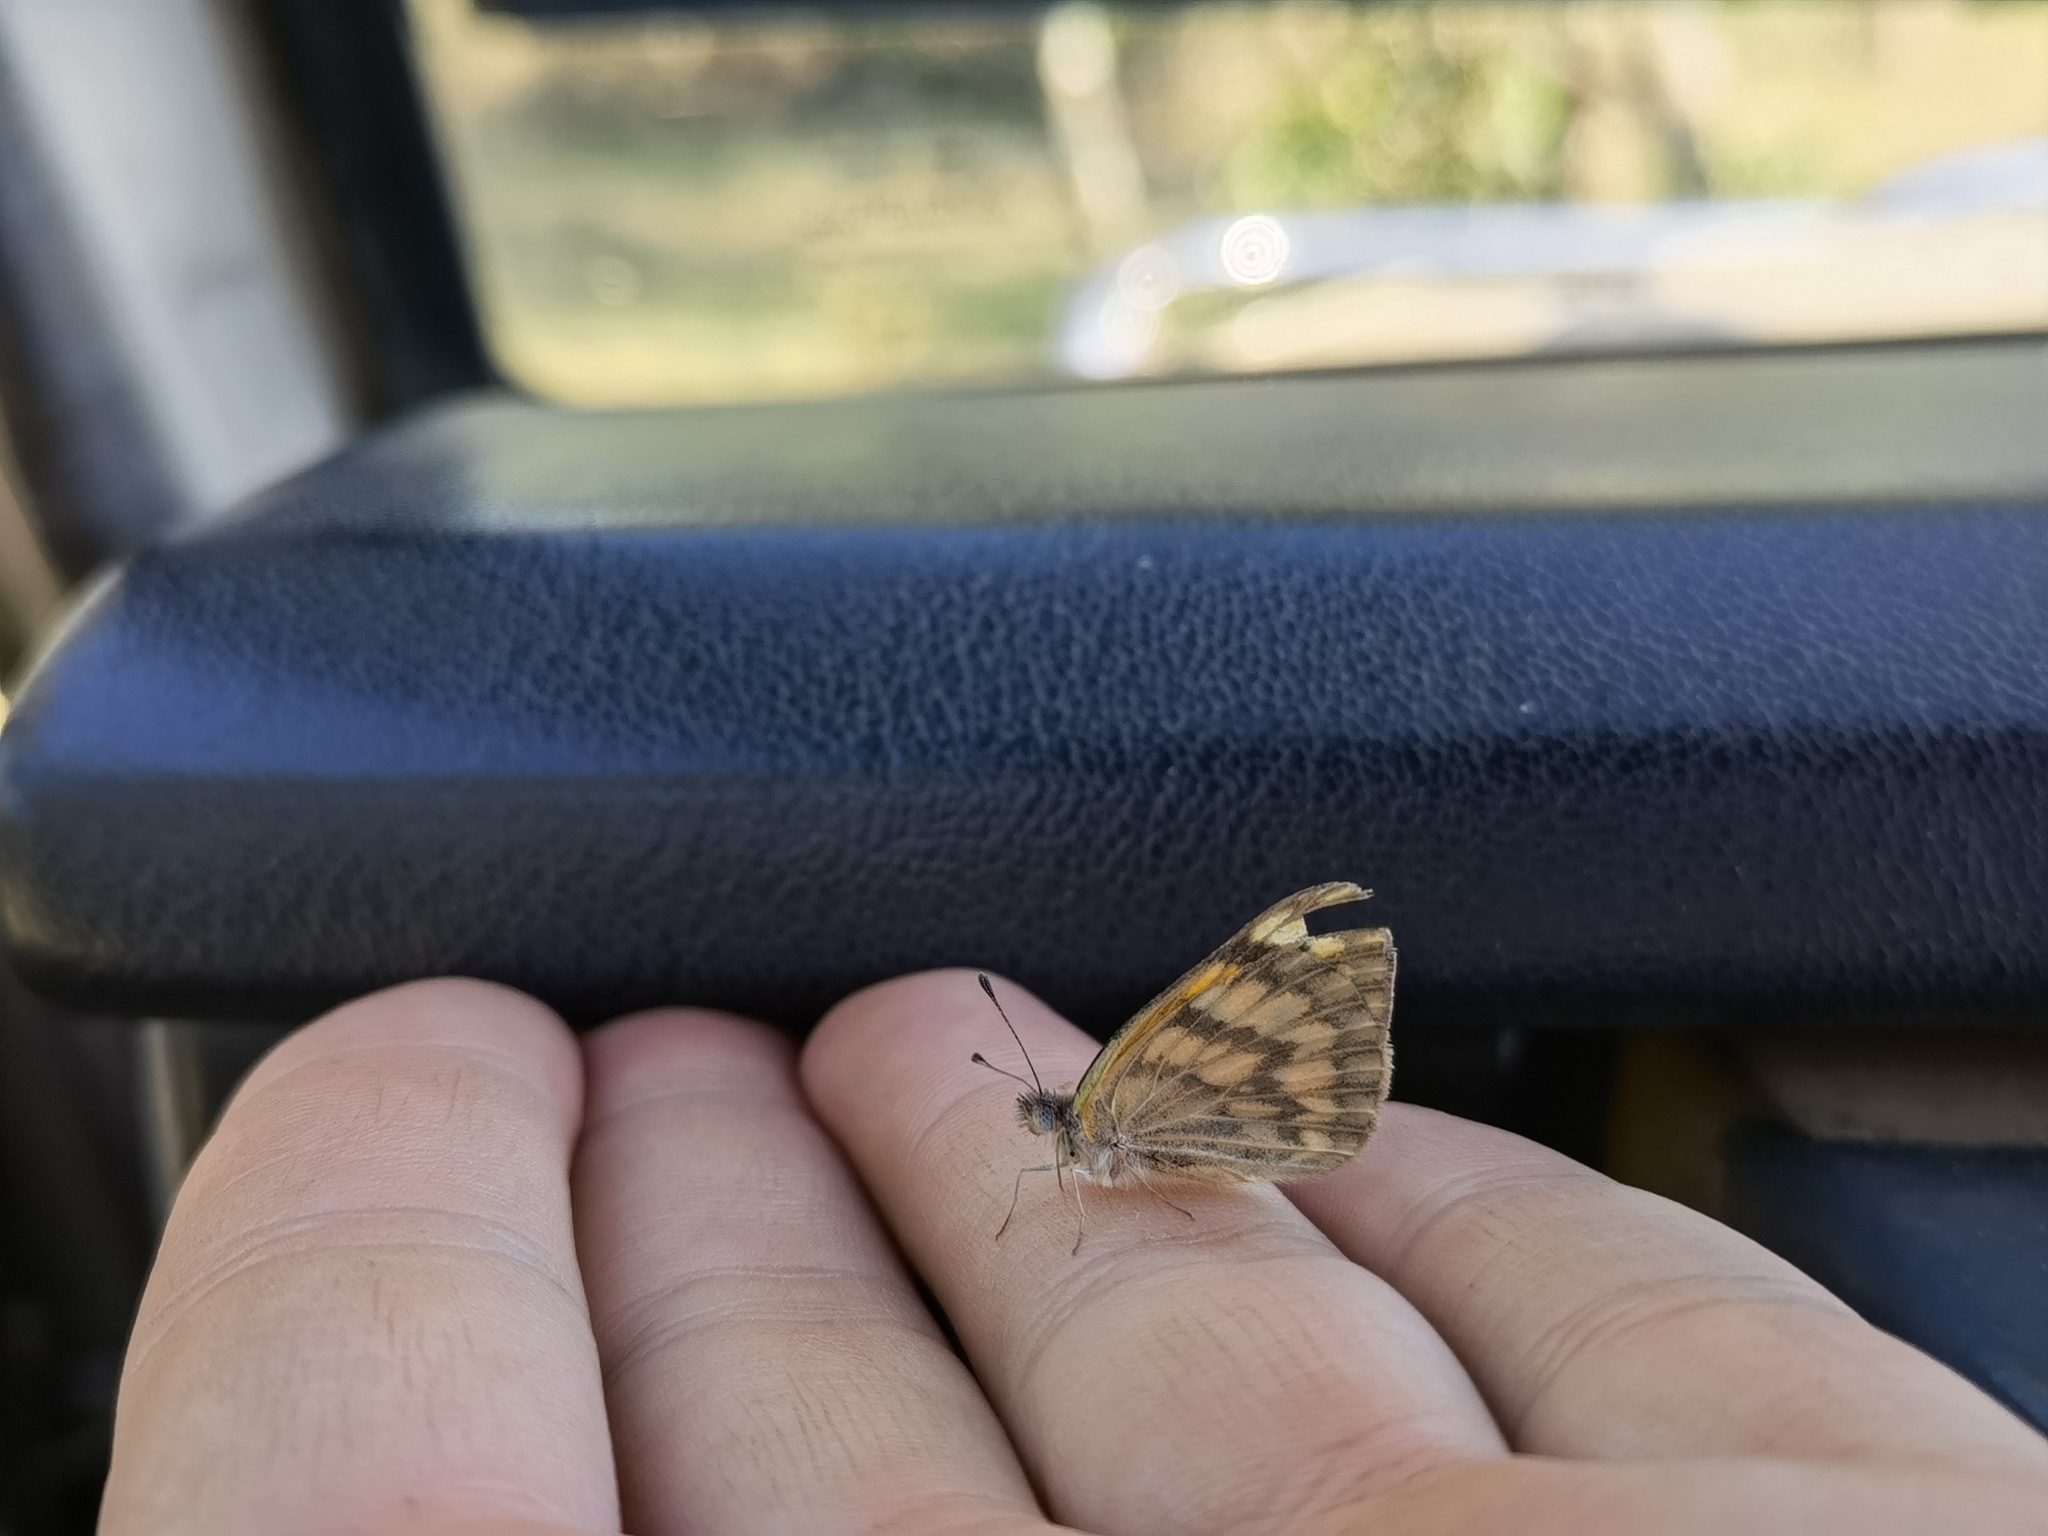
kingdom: Animalia
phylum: Arthropoda
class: Insecta
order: Lepidoptera
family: Pieridae
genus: Colotis
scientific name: Colotis aurigineus
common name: African golden arab
